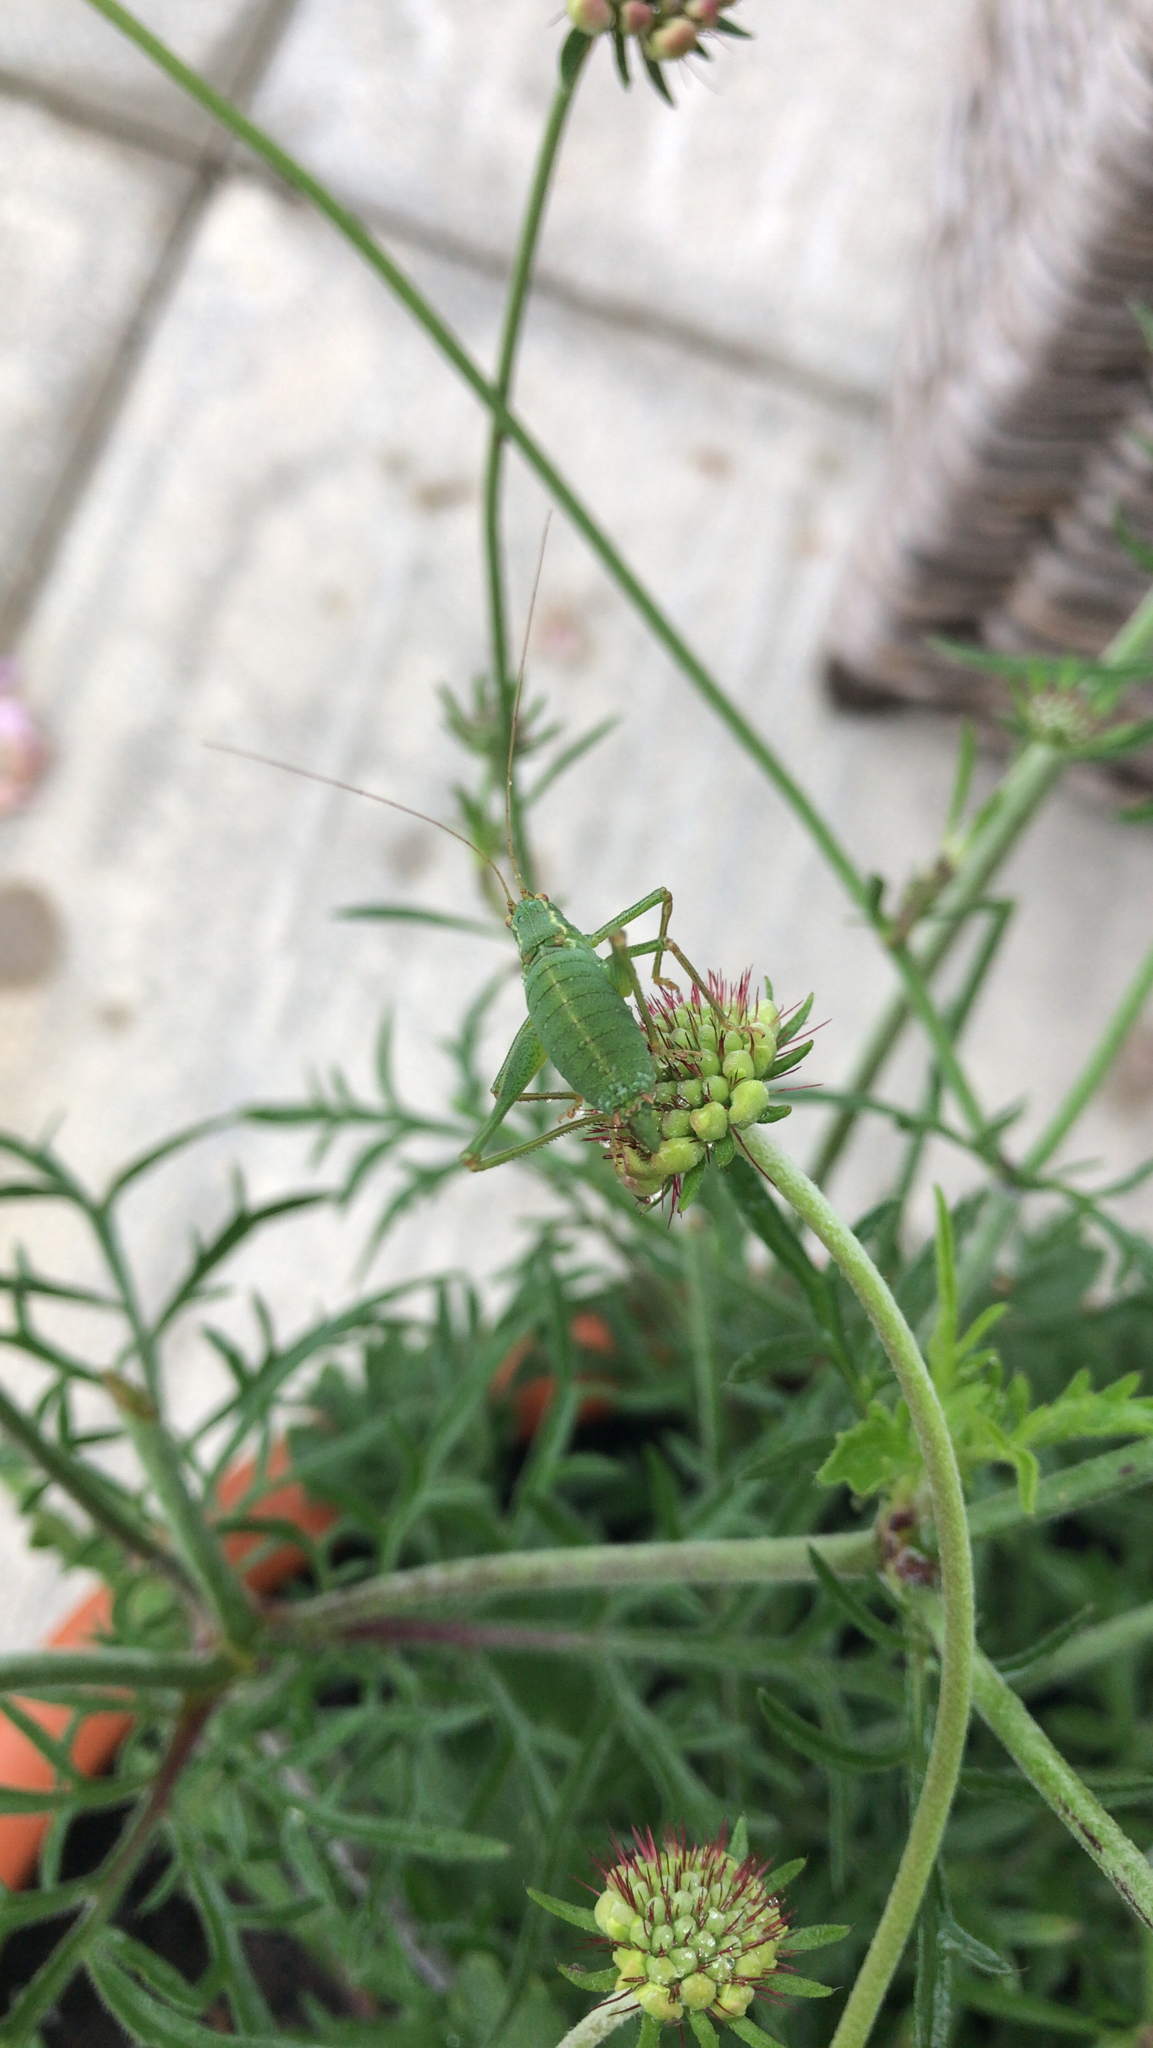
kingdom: Animalia
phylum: Arthropoda
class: Insecta
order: Orthoptera
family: Tettigoniidae
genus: Leptophyes
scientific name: Leptophyes punctatissima
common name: Speckled bush-cricket
